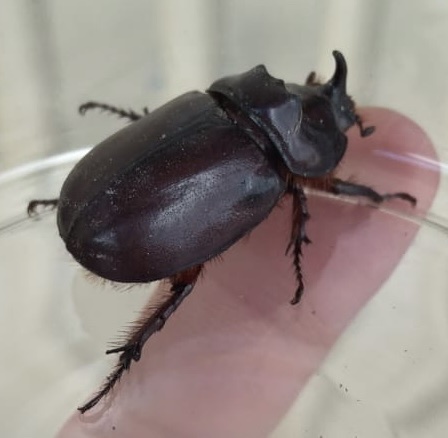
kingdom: Animalia
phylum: Arthropoda
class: Insecta
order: Coleoptera
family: Scarabaeidae
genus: Oryctes
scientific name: Oryctes nasicornis
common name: European rhinoceros beetle
